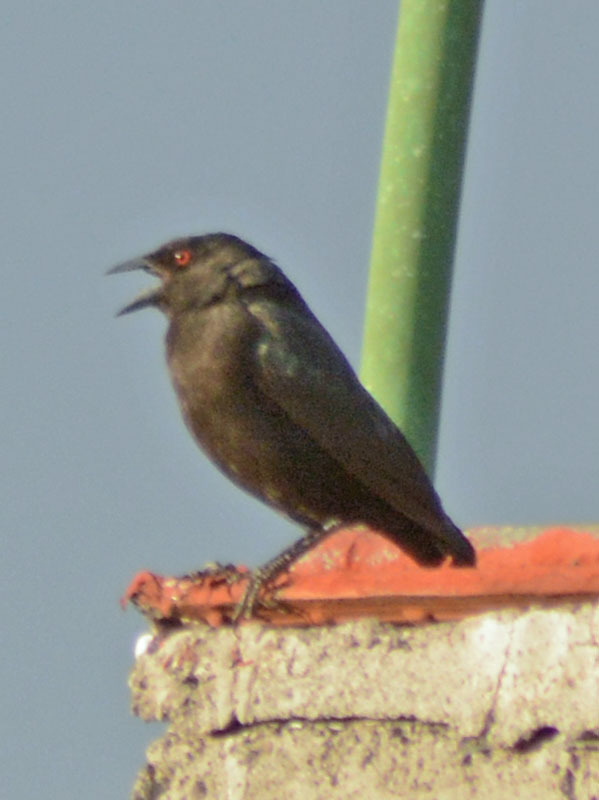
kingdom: Animalia
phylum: Chordata
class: Aves
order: Passeriformes
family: Icteridae
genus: Molothrus
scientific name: Molothrus aeneus
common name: Bronzed cowbird
